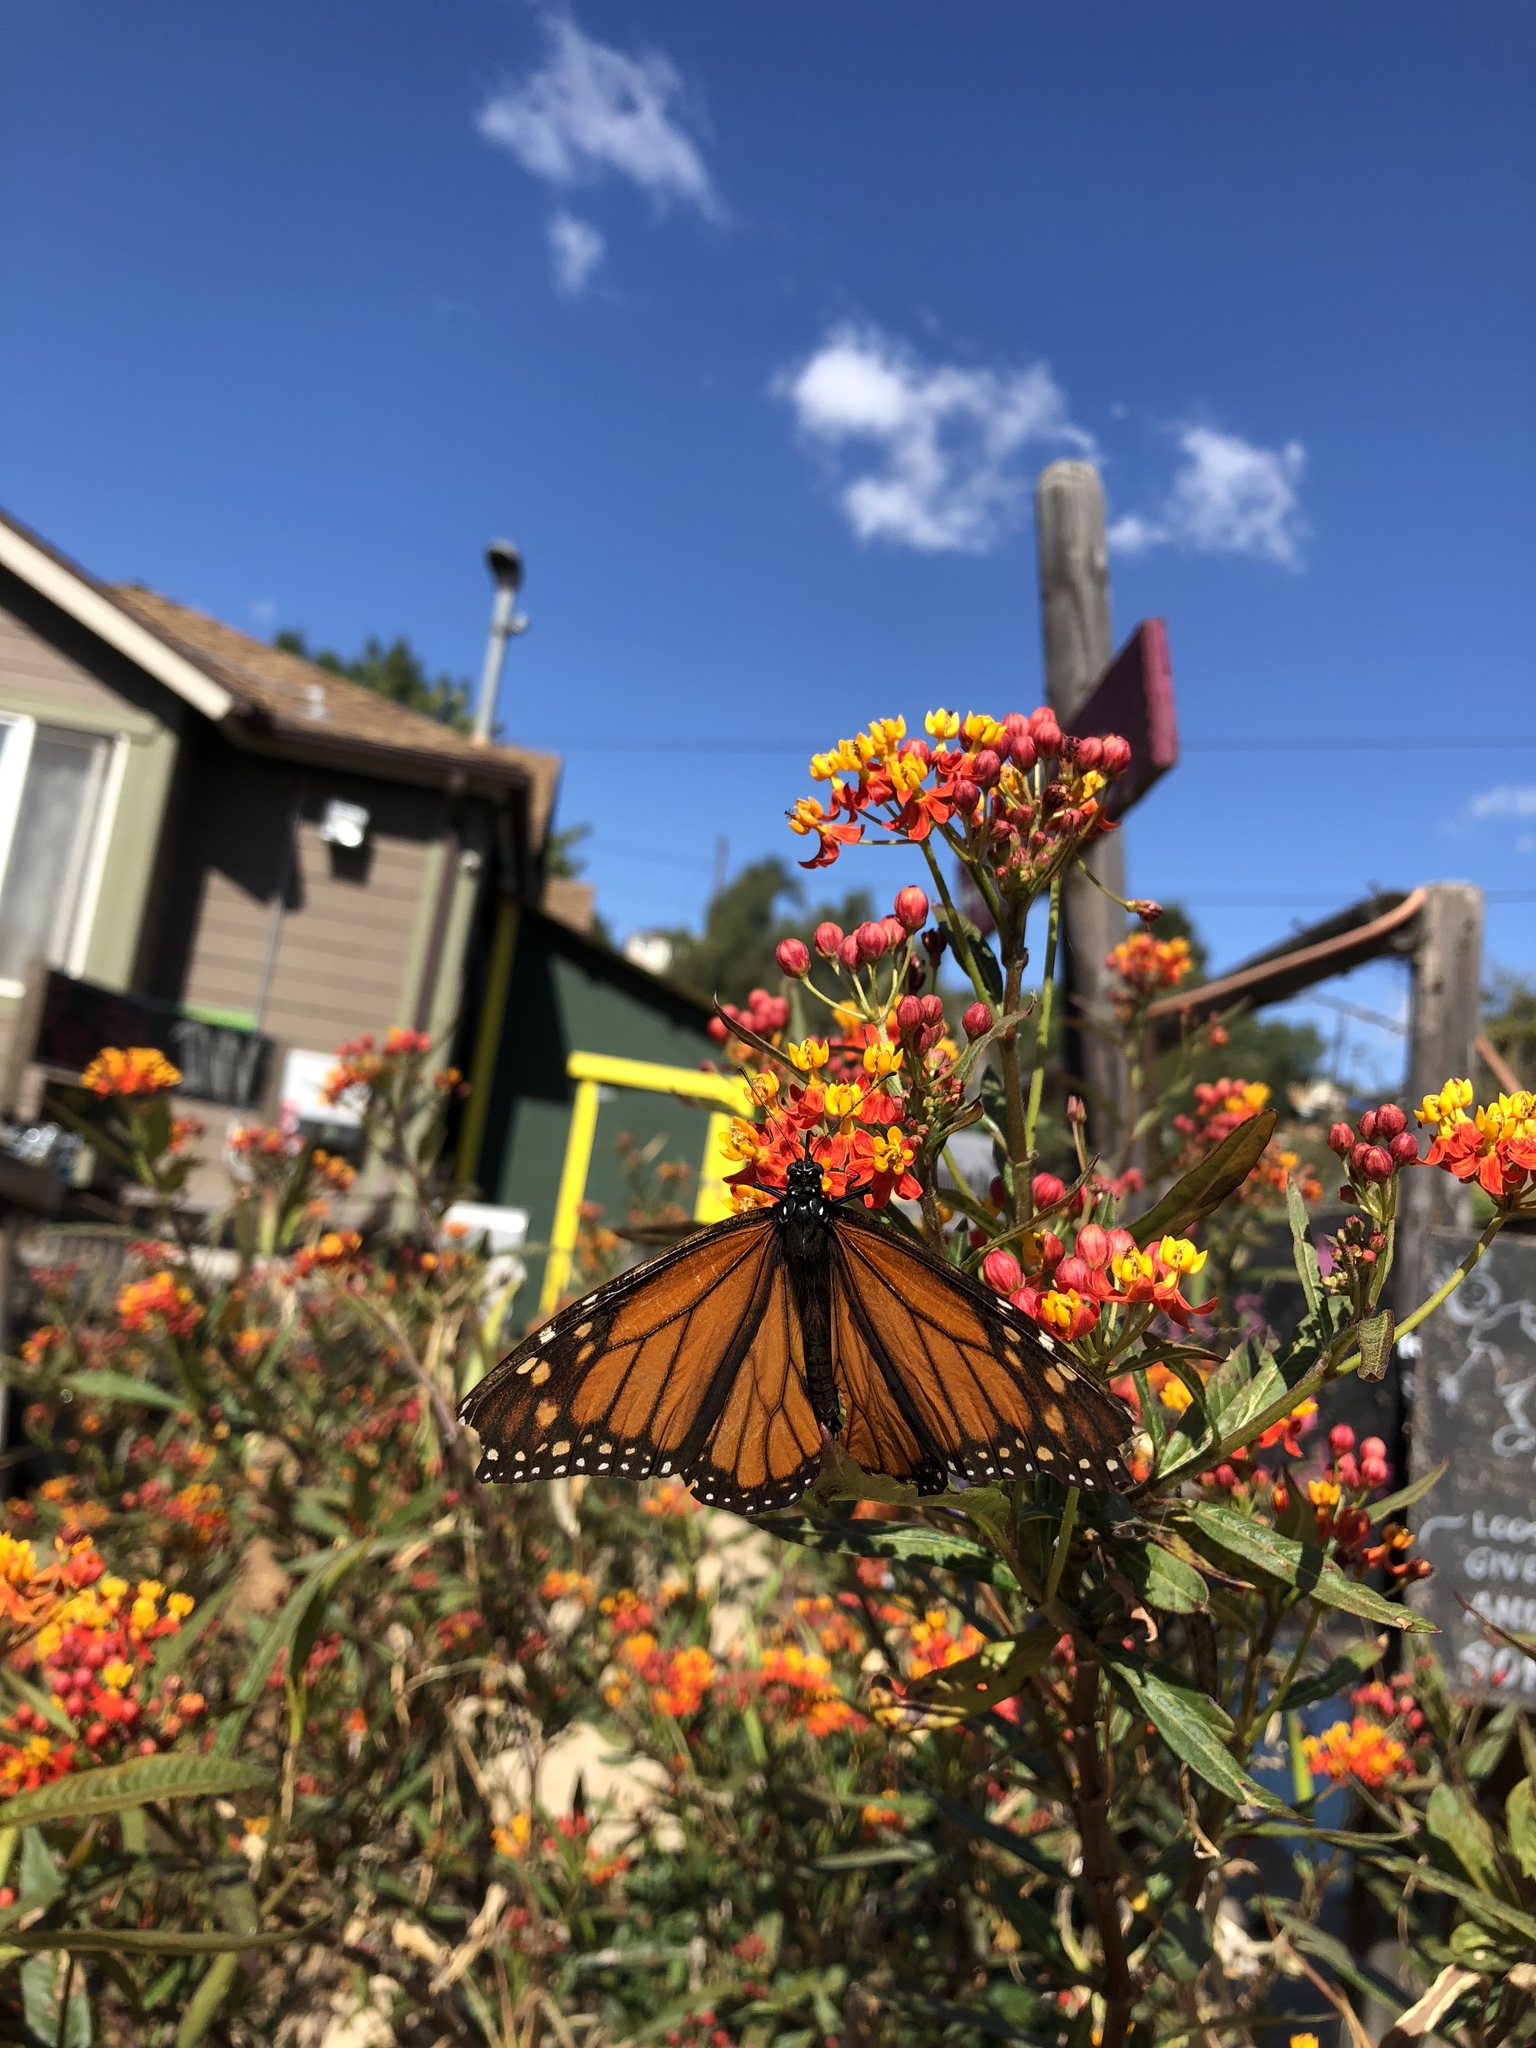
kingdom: Animalia
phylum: Arthropoda
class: Insecta
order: Lepidoptera
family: Nymphalidae
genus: Danaus
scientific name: Danaus plexippus
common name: Monarch
